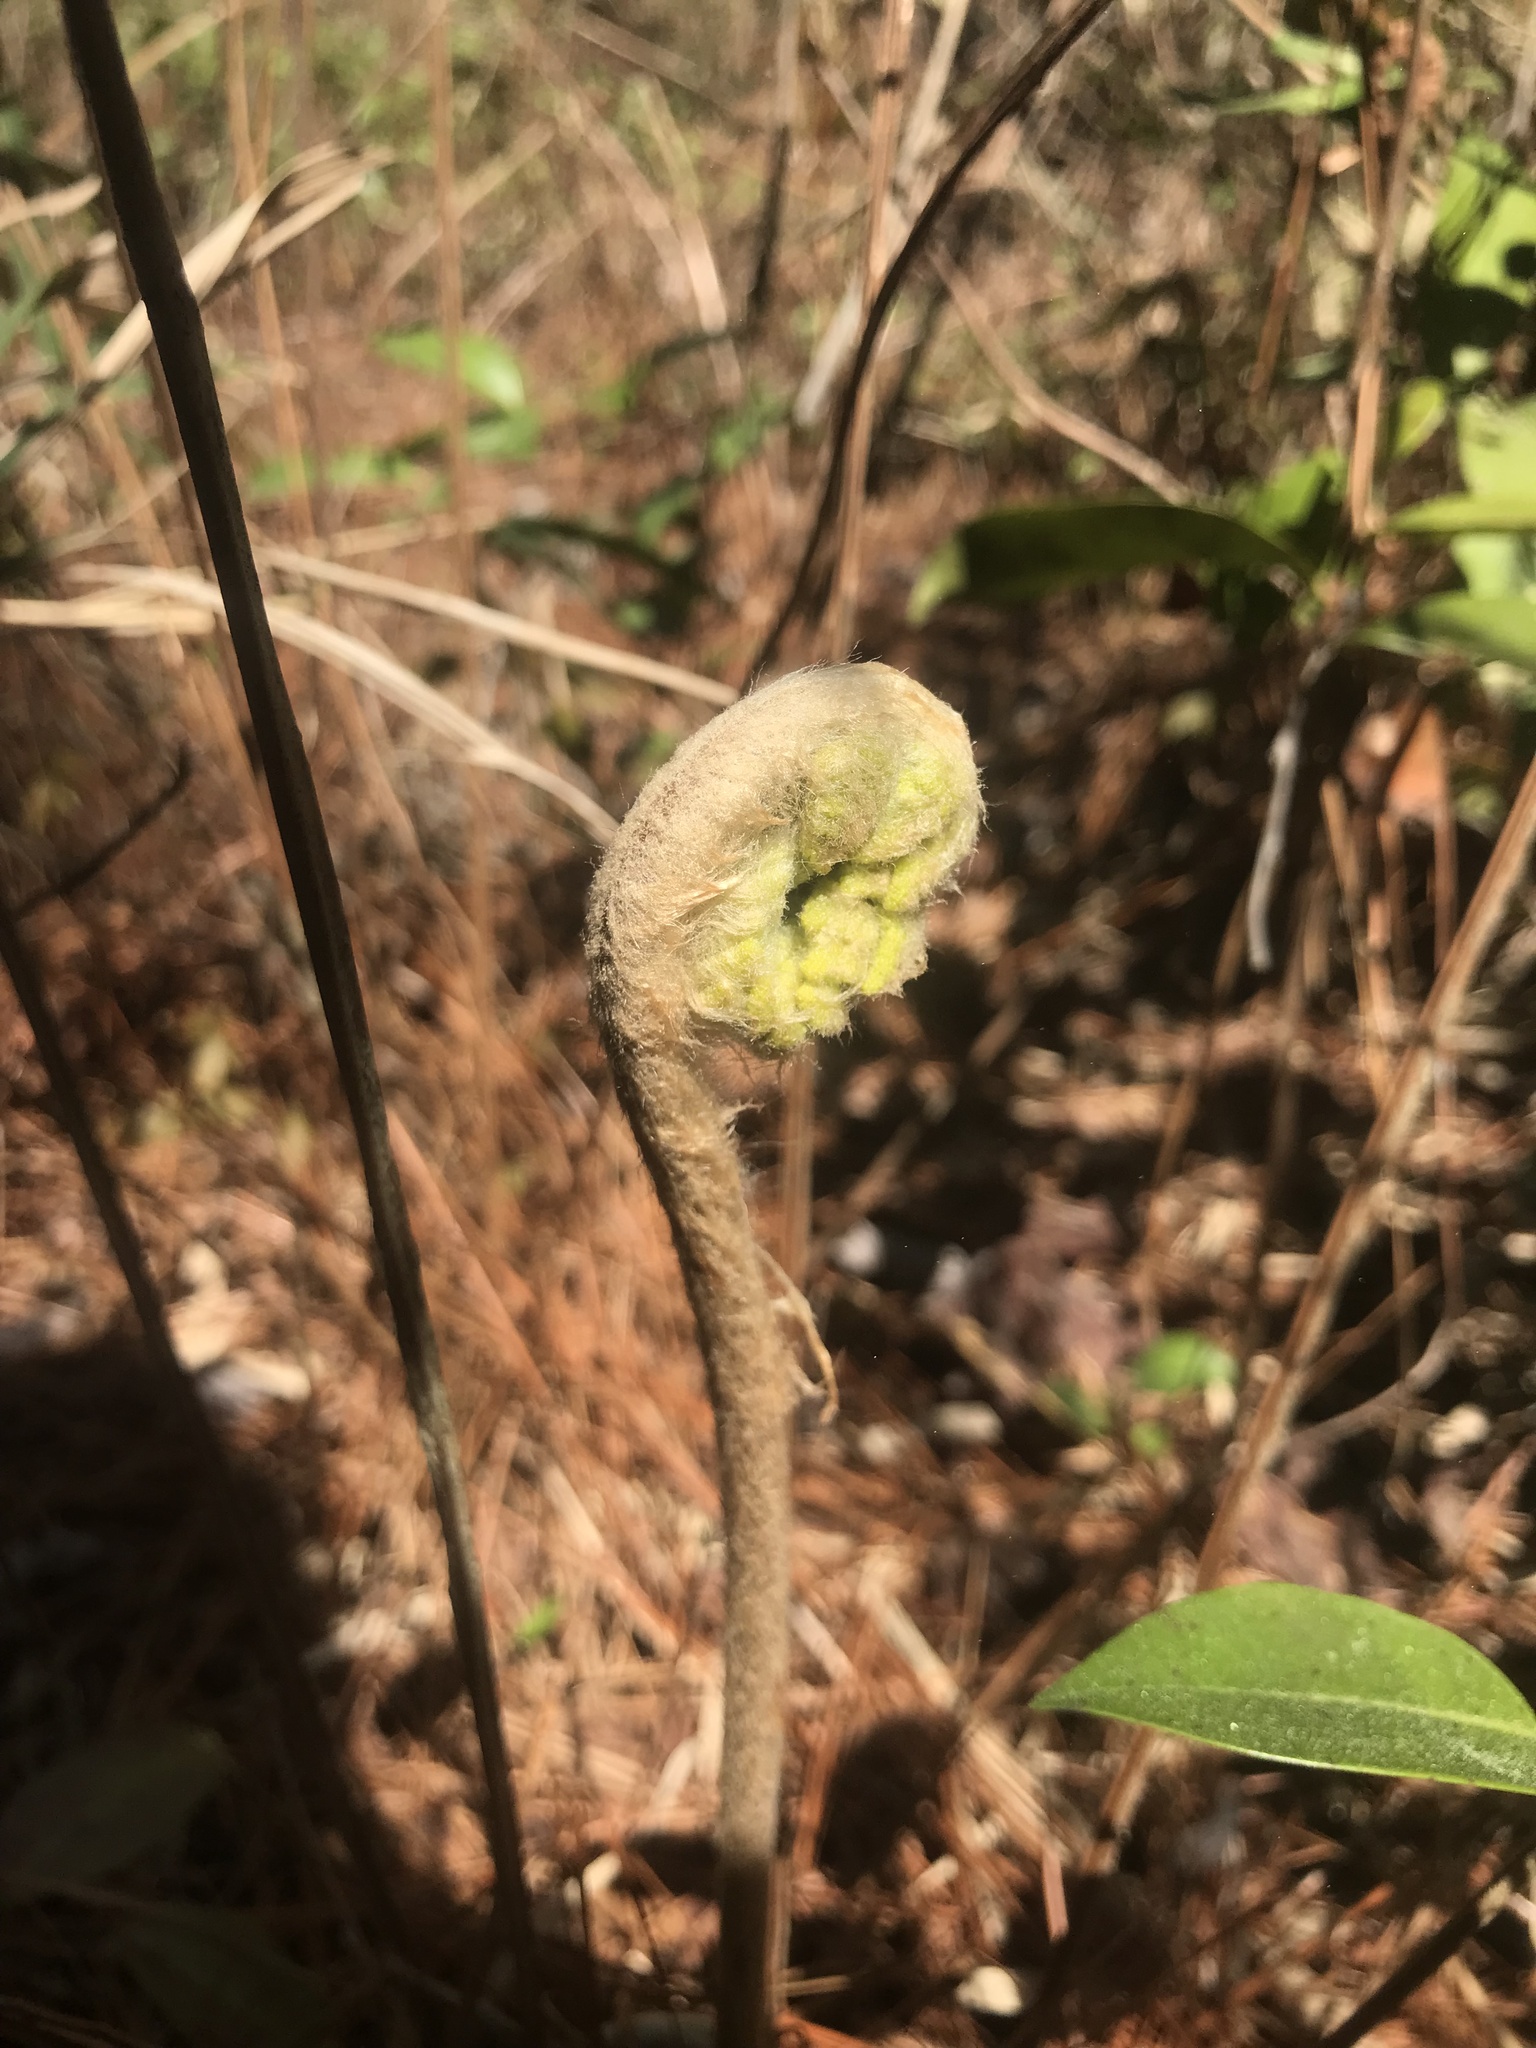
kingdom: Plantae
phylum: Tracheophyta
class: Polypodiopsida
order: Osmundales
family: Osmundaceae
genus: Osmundastrum
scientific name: Osmundastrum cinnamomeum
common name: Cinnamon fern
